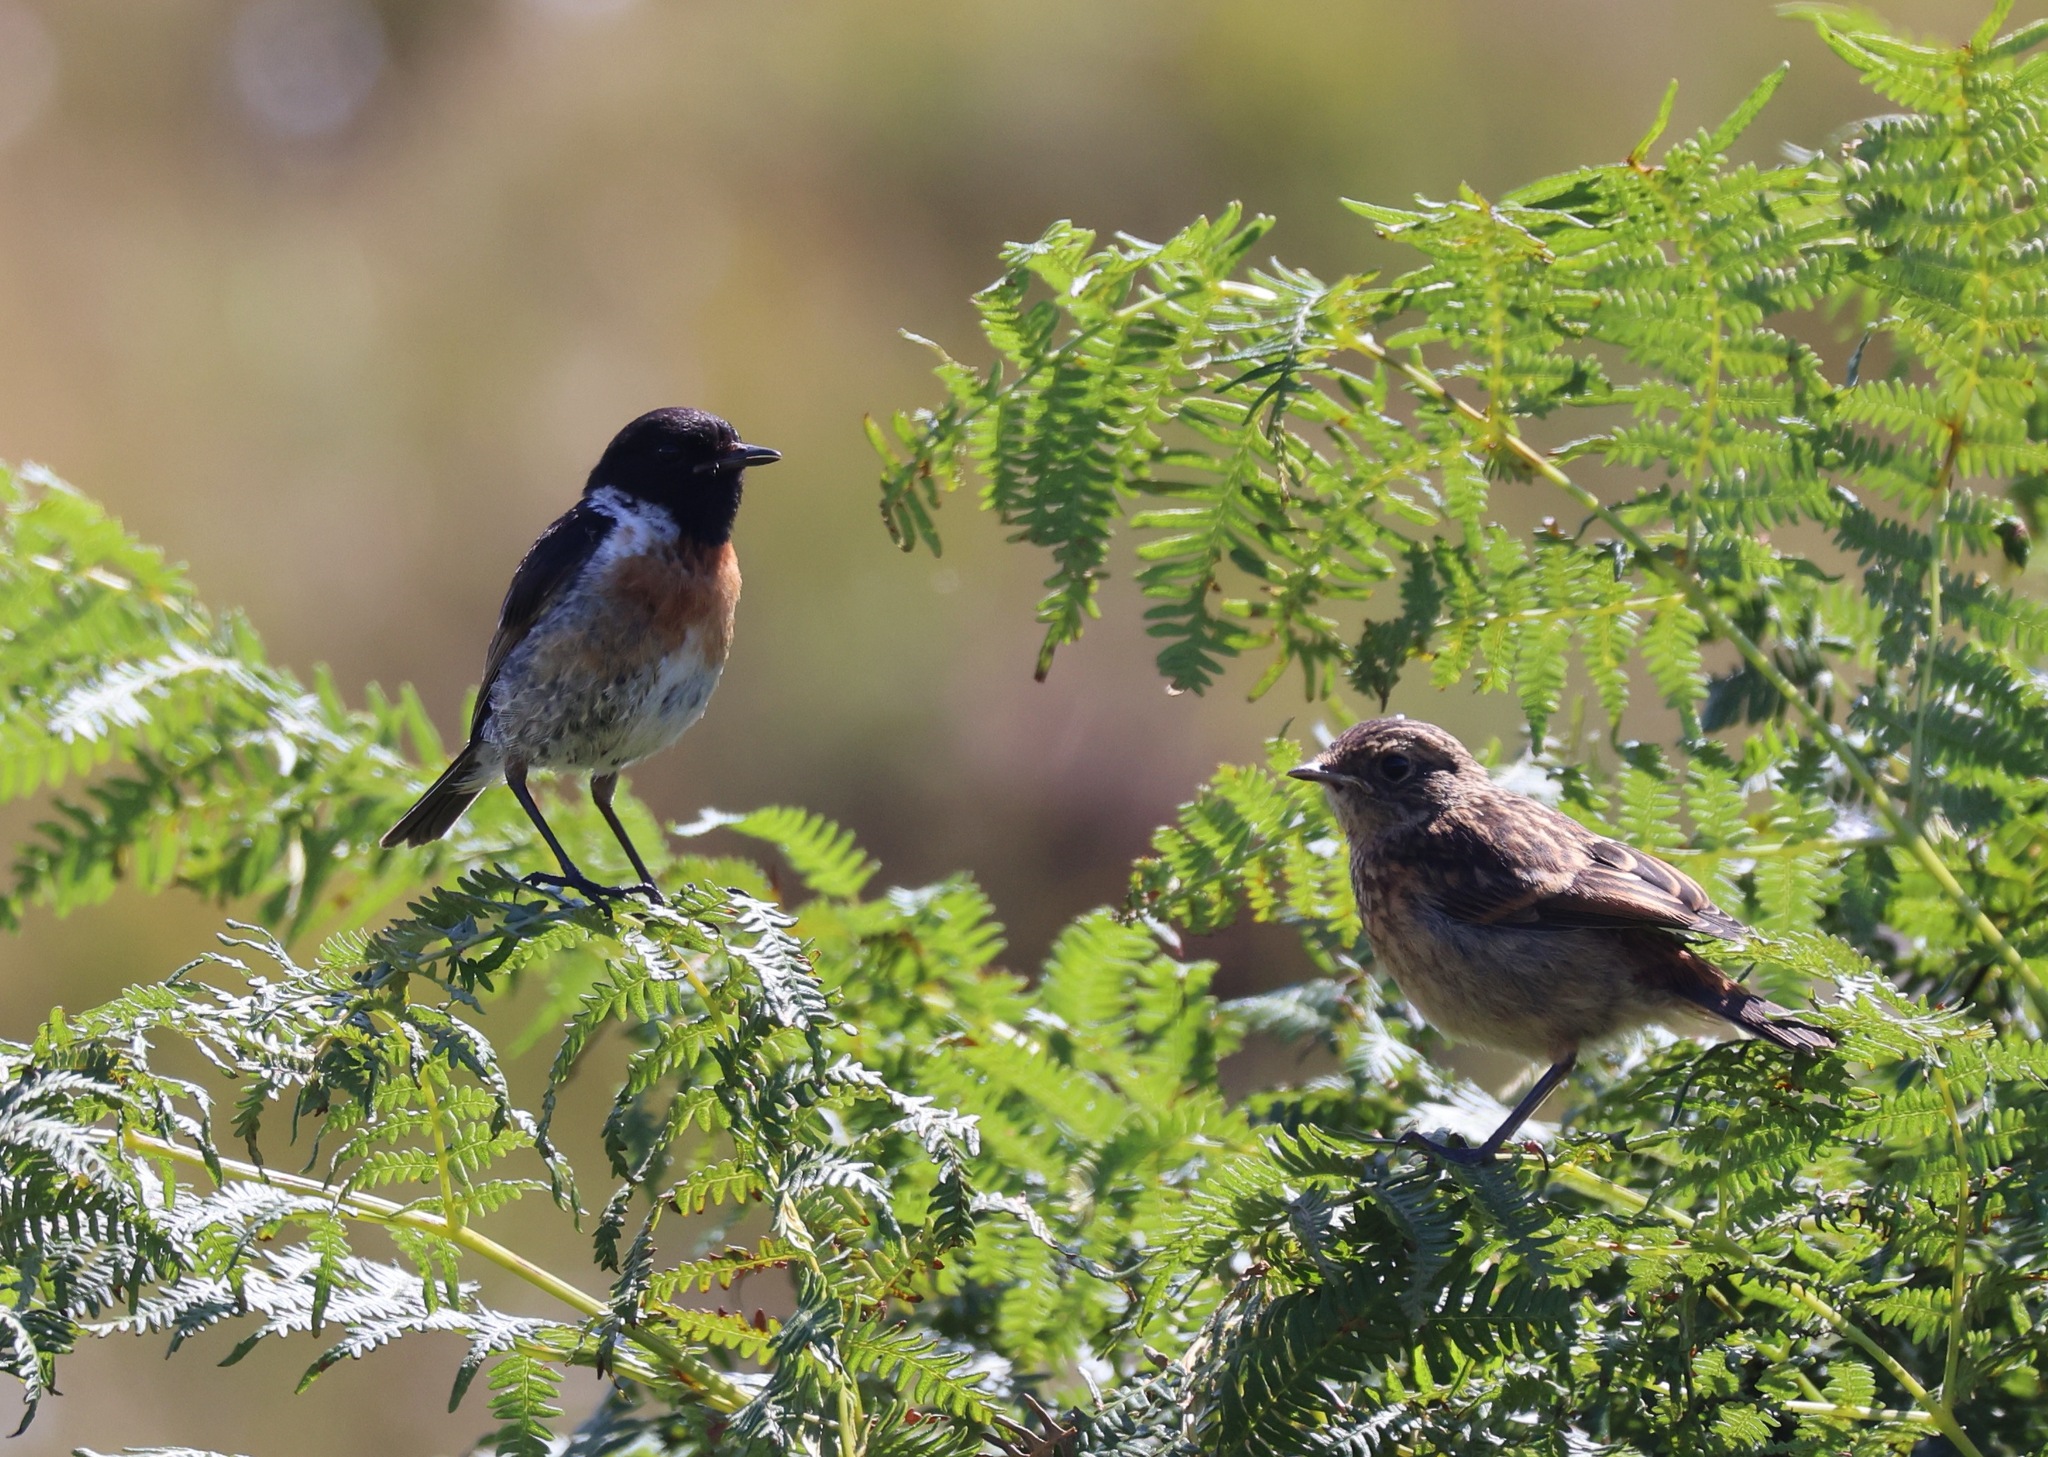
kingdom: Animalia
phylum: Chordata
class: Aves
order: Passeriformes
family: Muscicapidae
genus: Saxicola
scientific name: Saxicola rubicola
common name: European stonechat
